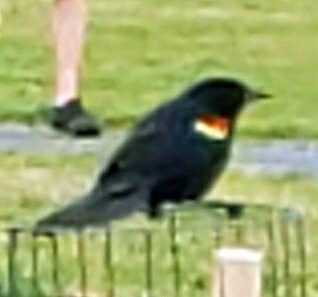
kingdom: Animalia
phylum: Chordata
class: Aves
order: Passeriformes
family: Icteridae
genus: Agelaius
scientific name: Agelaius phoeniceus
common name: Red-winged blackbird
